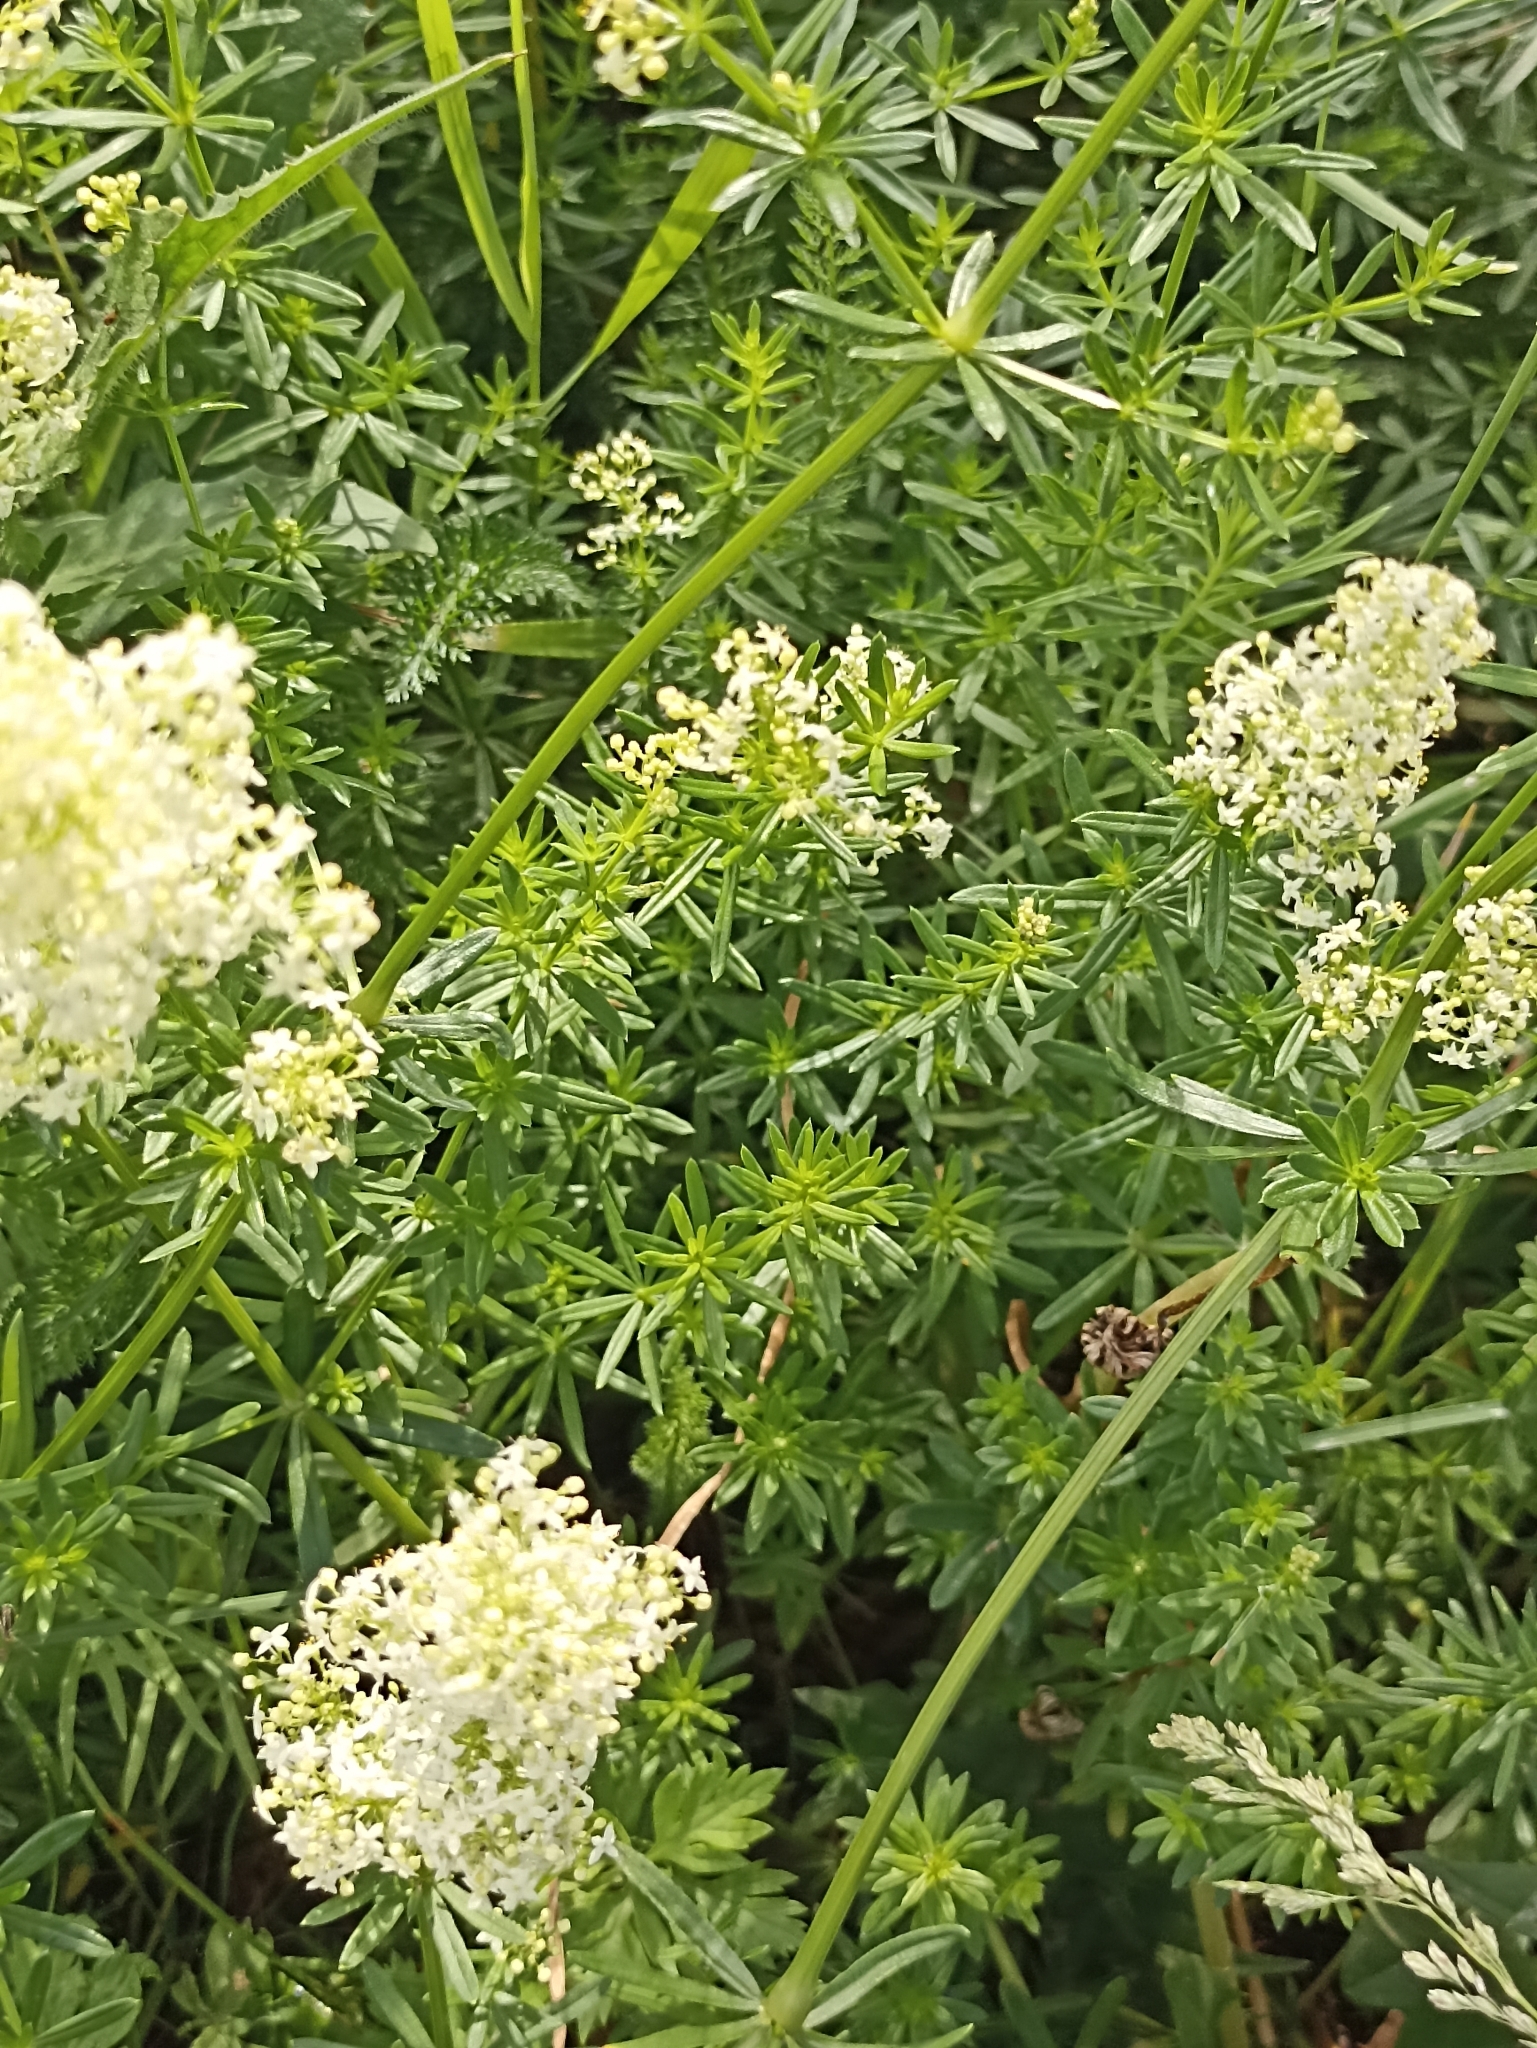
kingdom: Plantae
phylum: Tracheophyta
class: Magnoliopsida
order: Gentianales
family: Rubiaceae
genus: Galium
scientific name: Galium mollugo
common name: Hedge bedstraw
